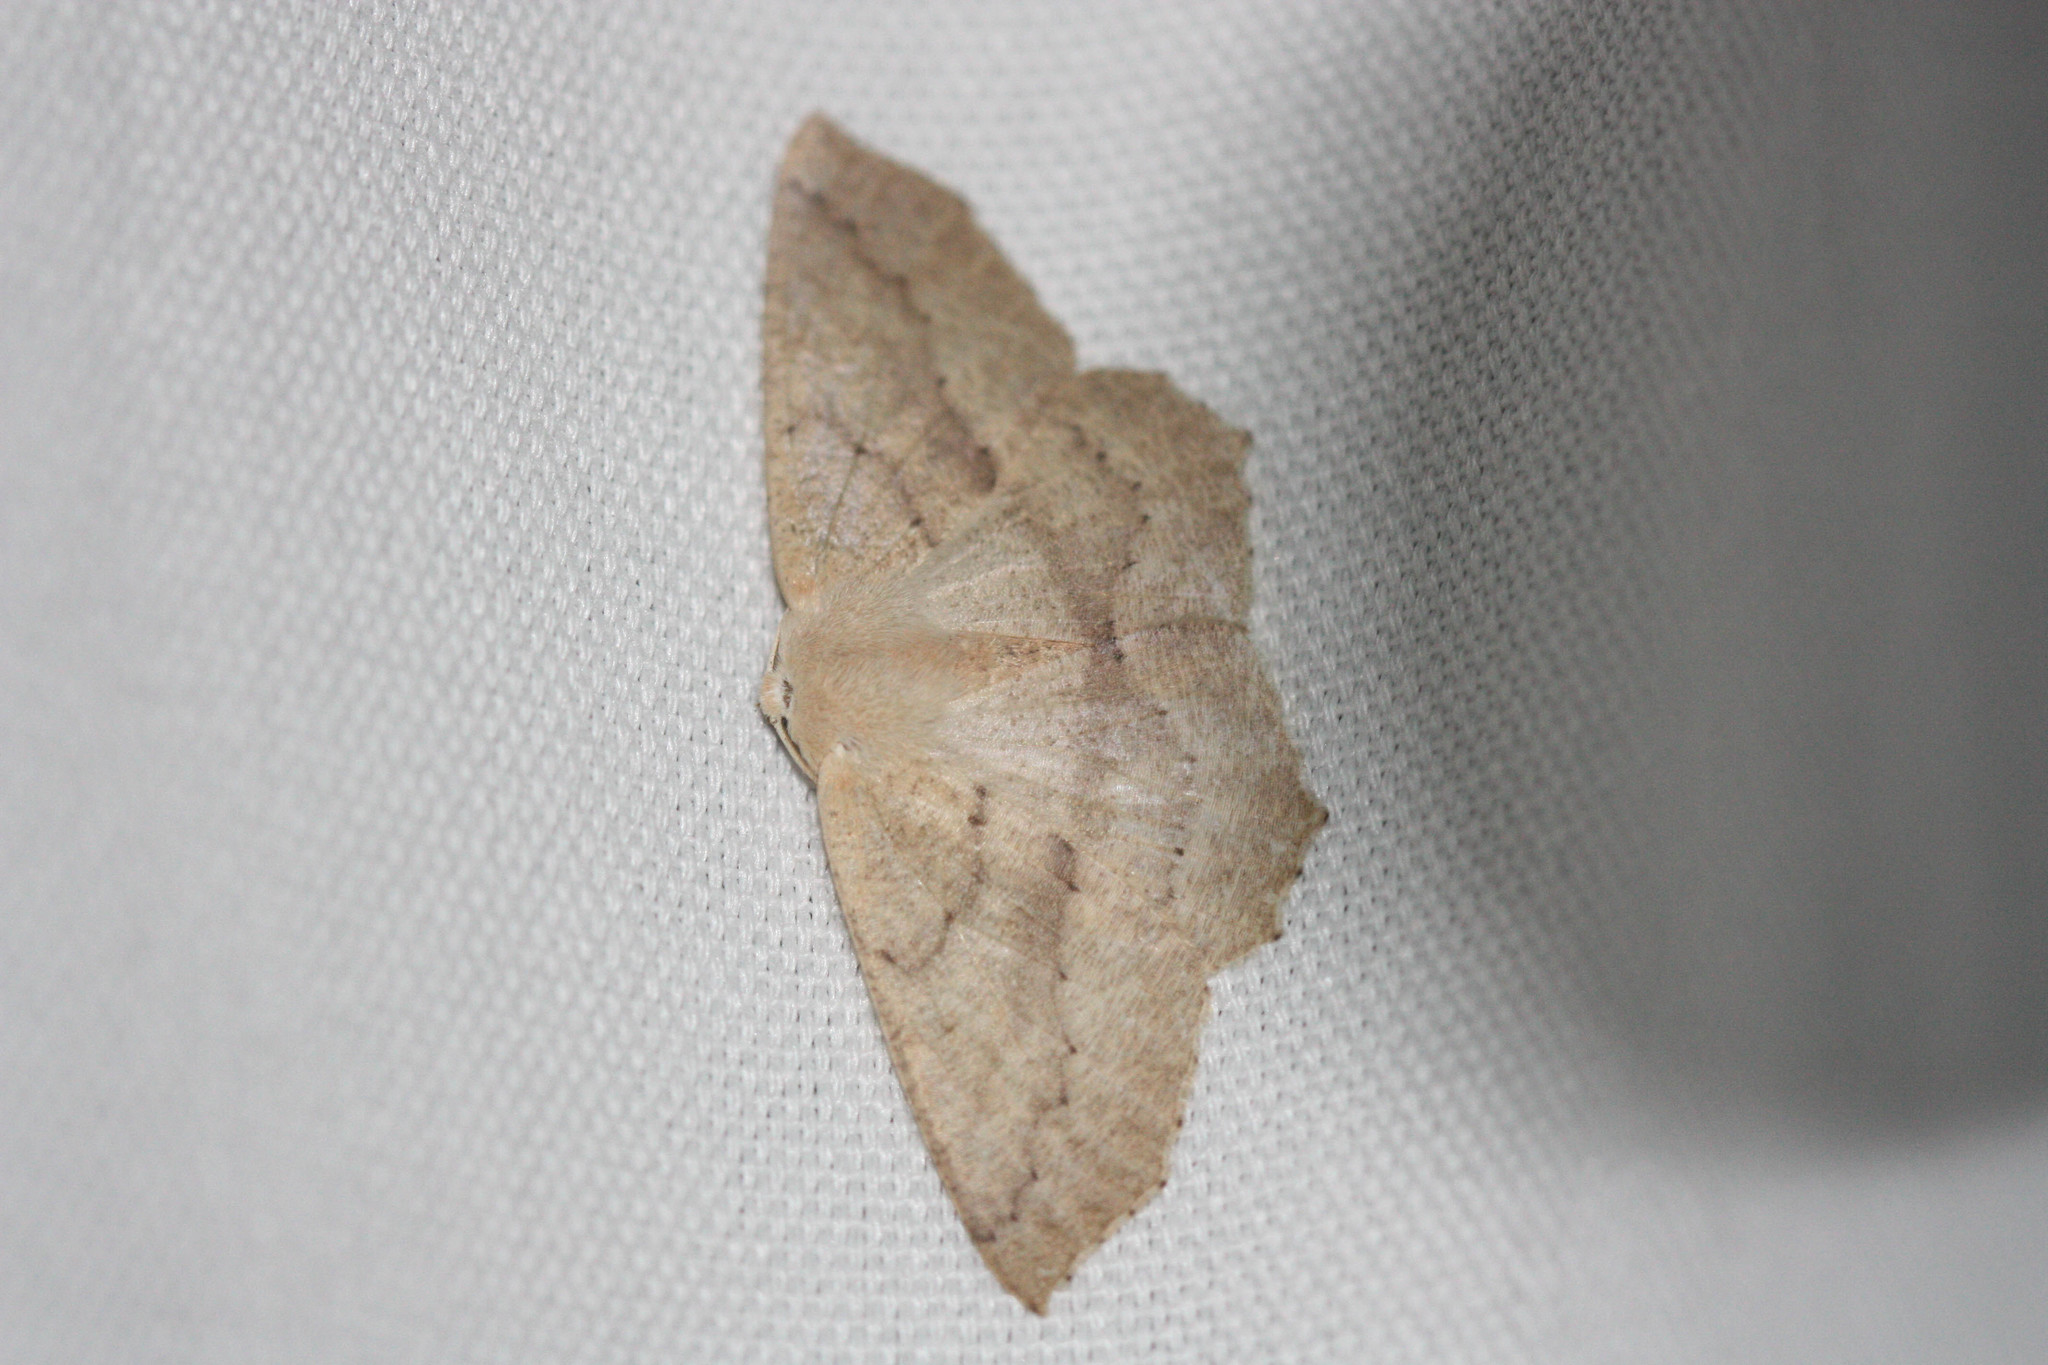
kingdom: Animalia
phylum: Arthropoda
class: Insecta
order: Lepidoptera
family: Geometridae
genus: Sabulodes
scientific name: Sabulodes aegrotata
